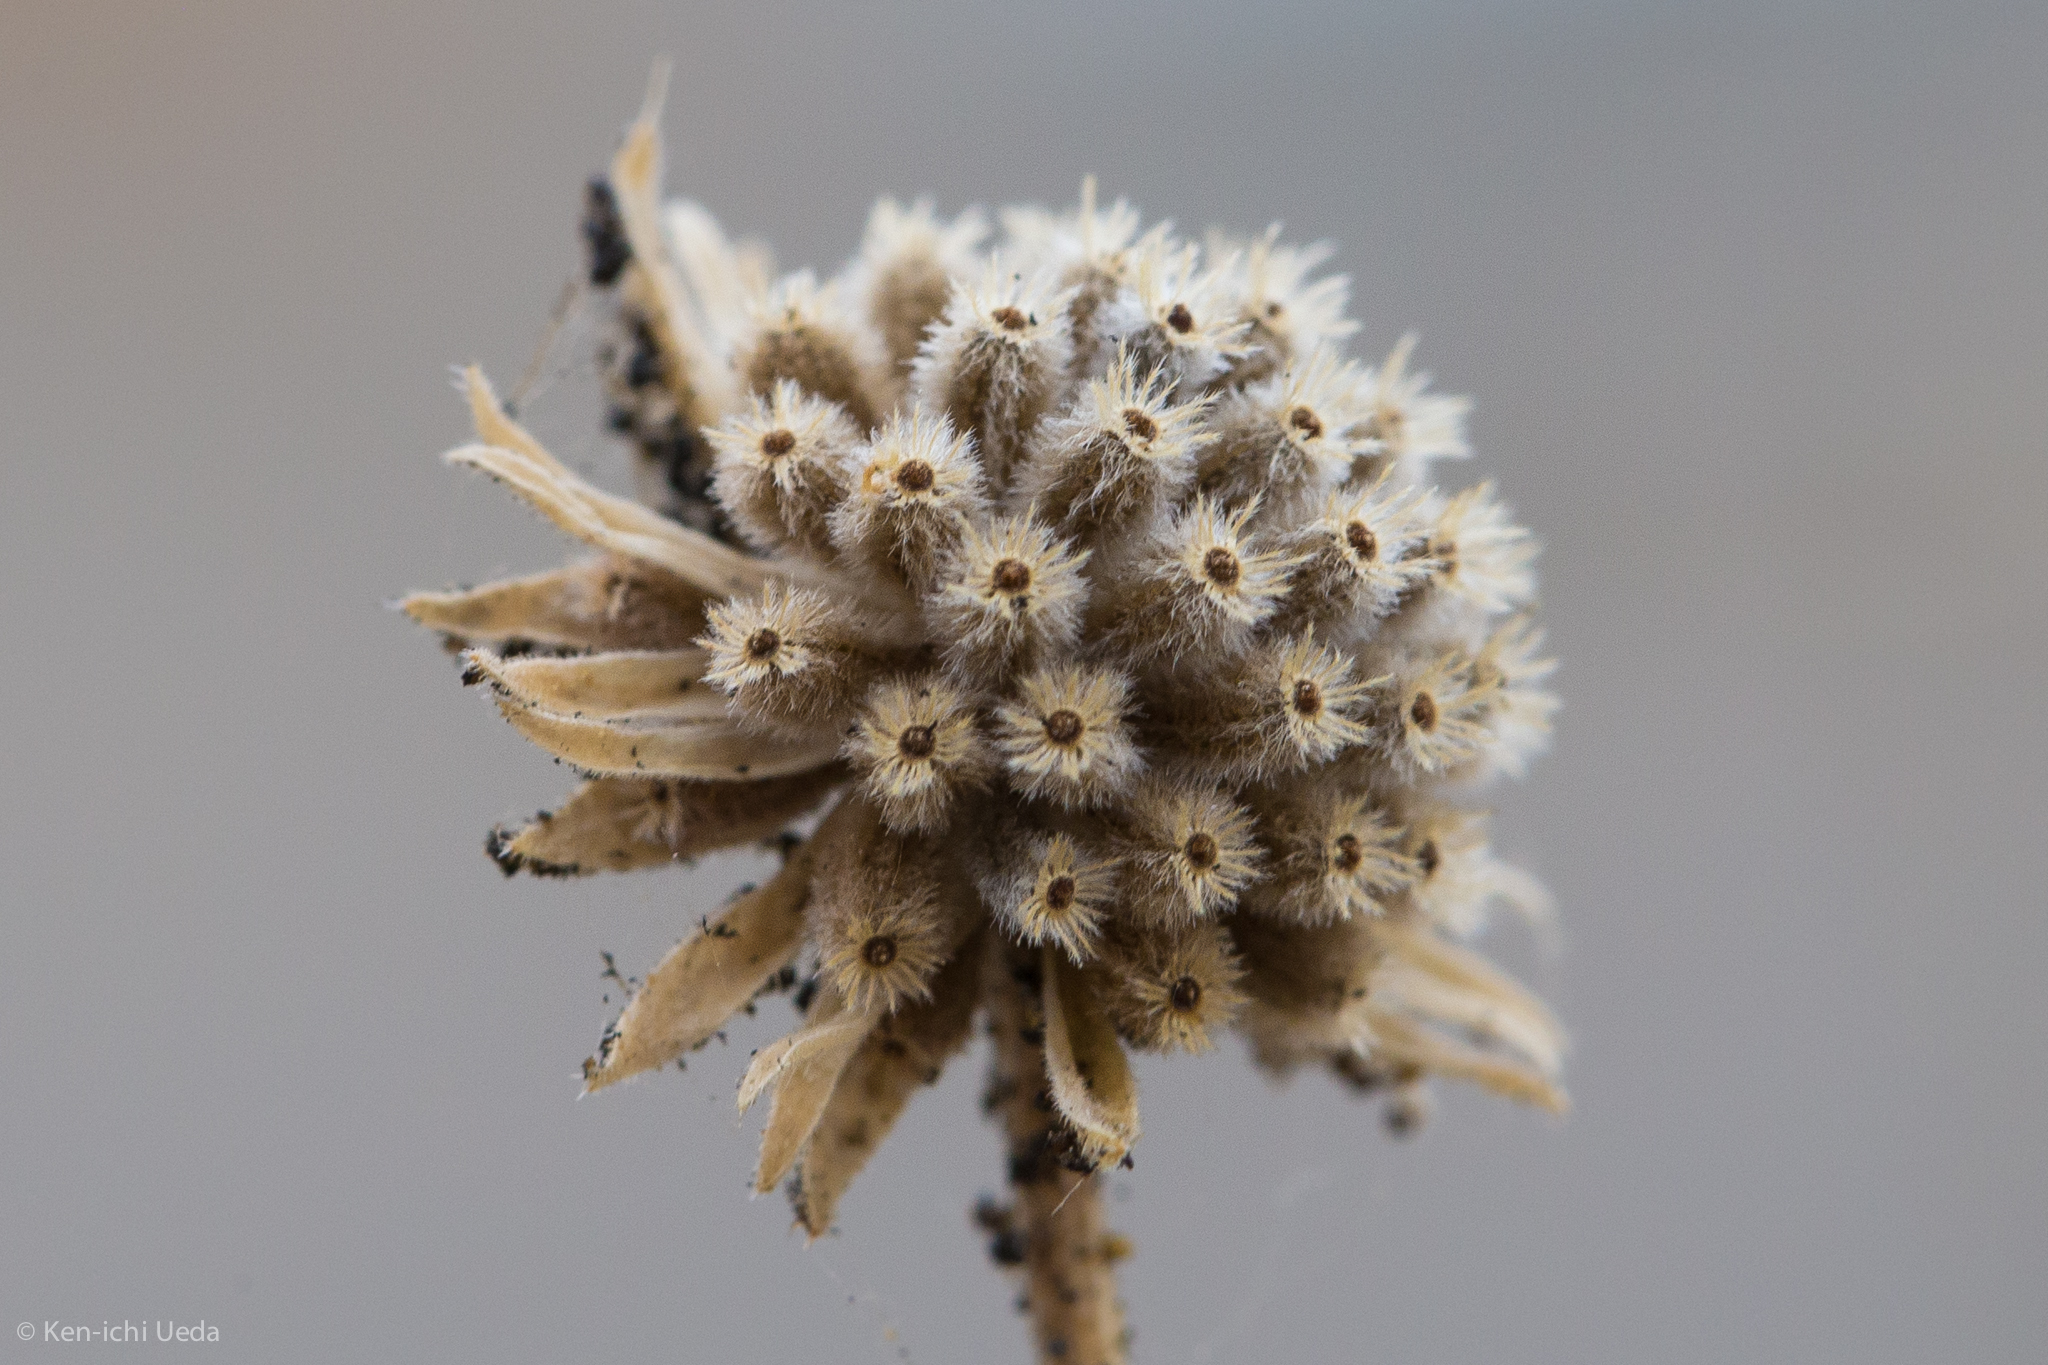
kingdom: Plantae
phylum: Tracheophyta
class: Magnoliopsida
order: Asterales
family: Asteraceae
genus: Blepharizonia
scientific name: Blepharizonia laxa
